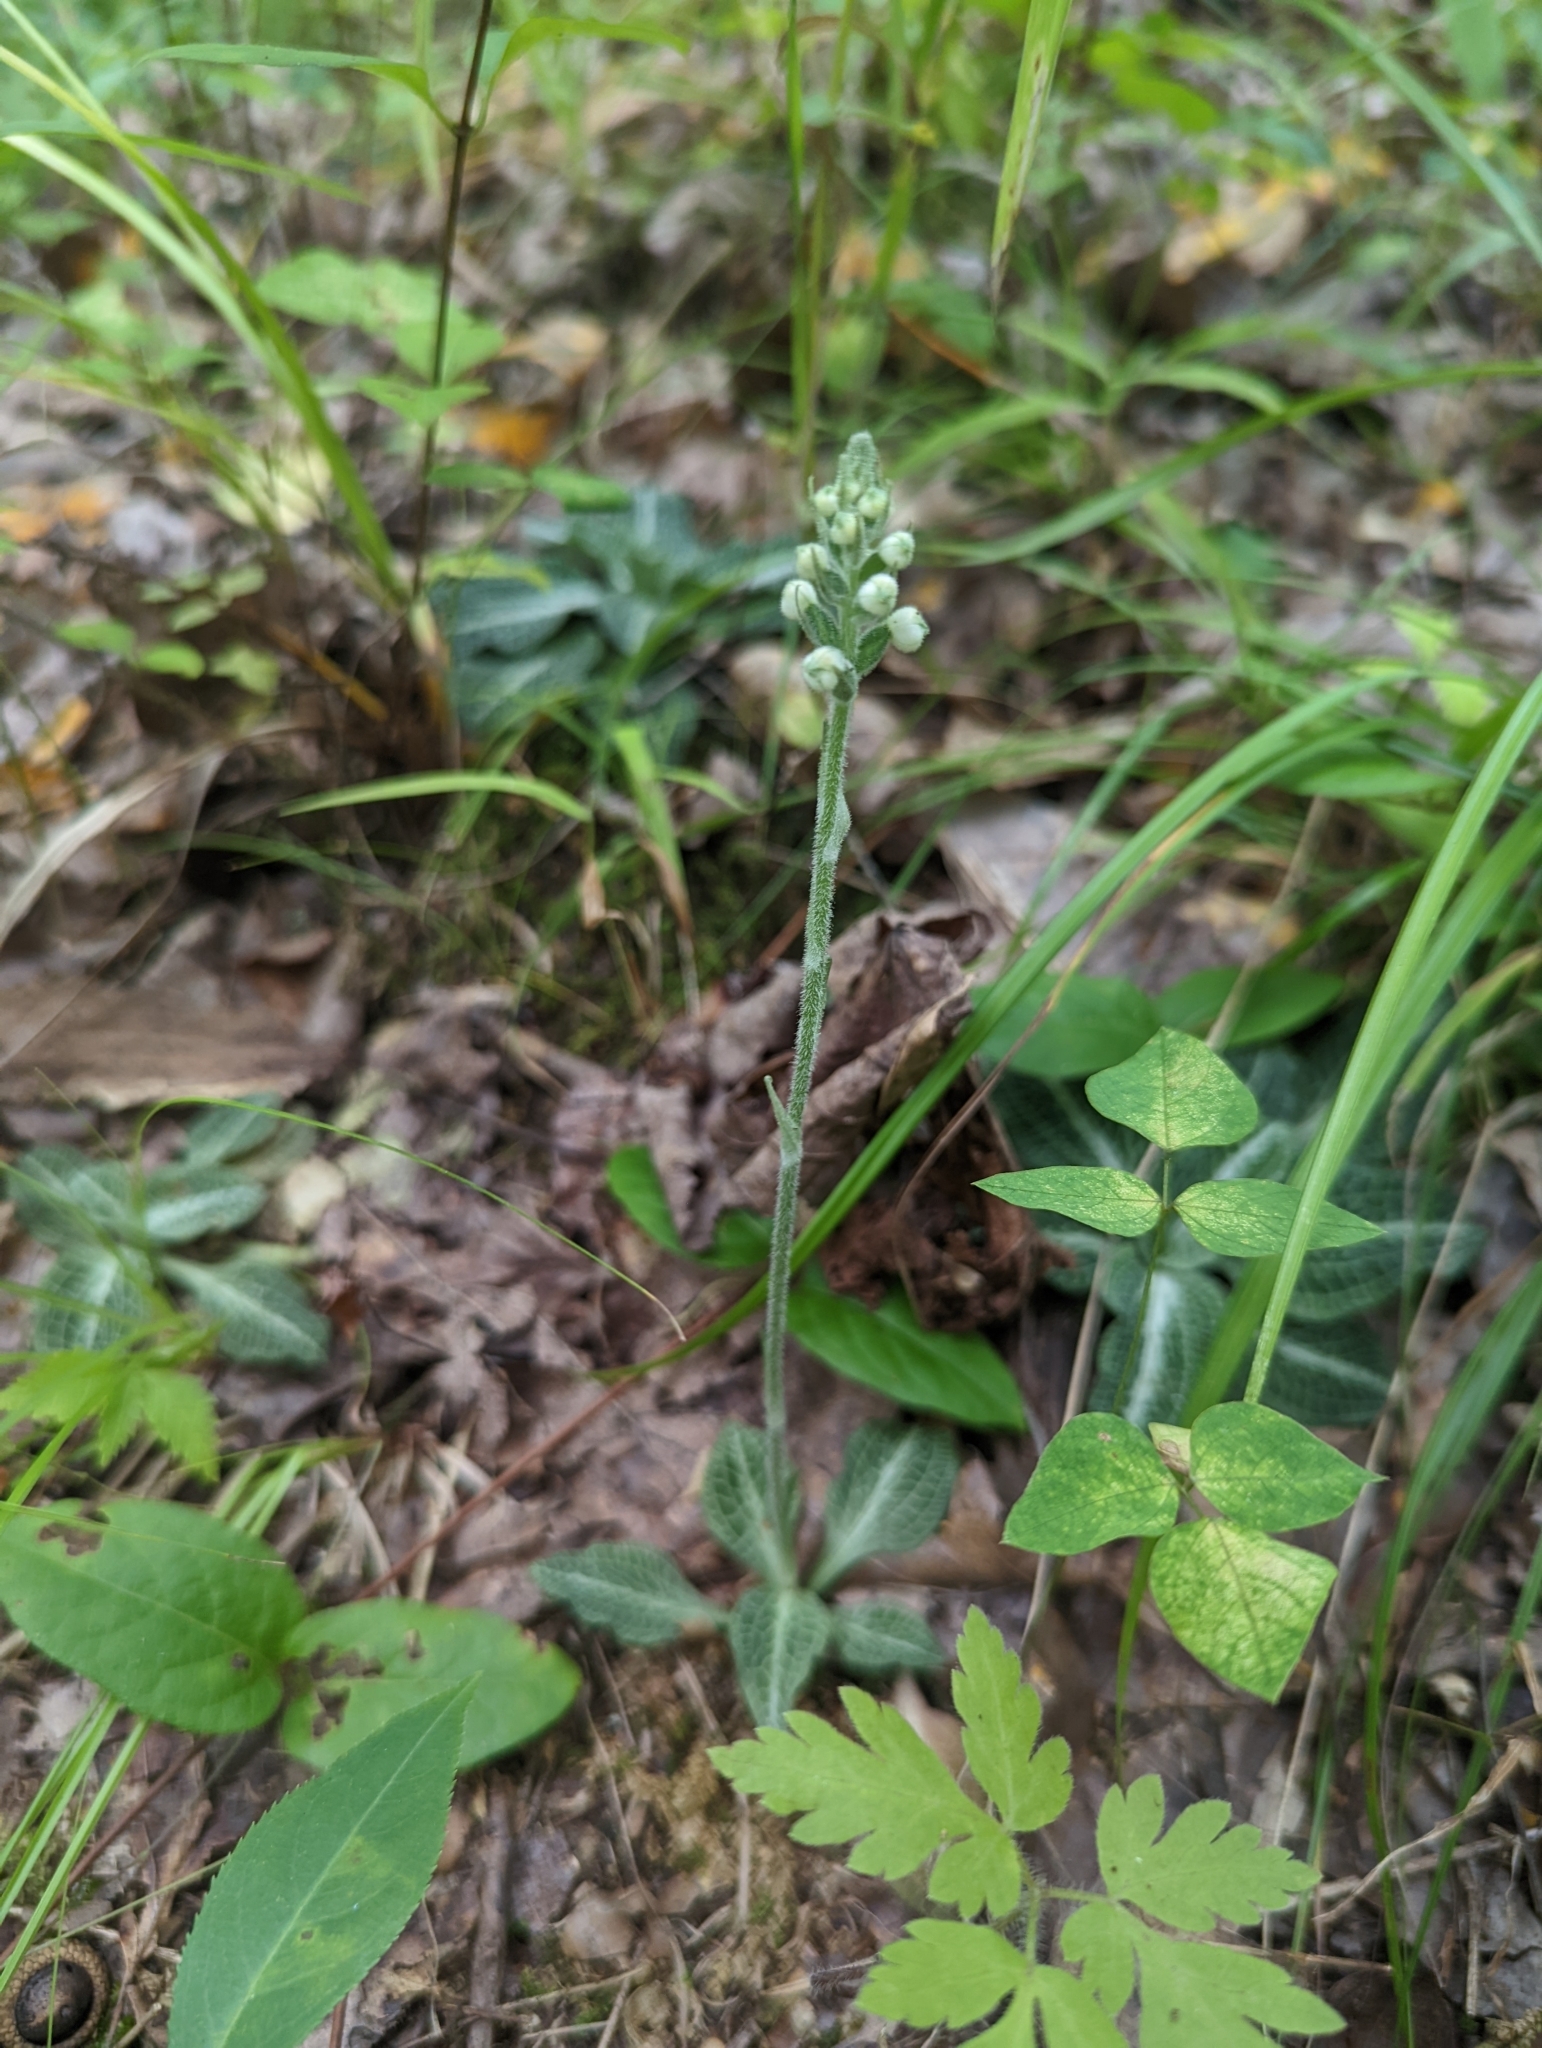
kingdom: Plantae
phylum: Tracheophyta
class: Liliopsida
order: Asparagales
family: Orchidaceae
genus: Goodyera
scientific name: Goodyera pubescens
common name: Downy rattlesnake-plantain
